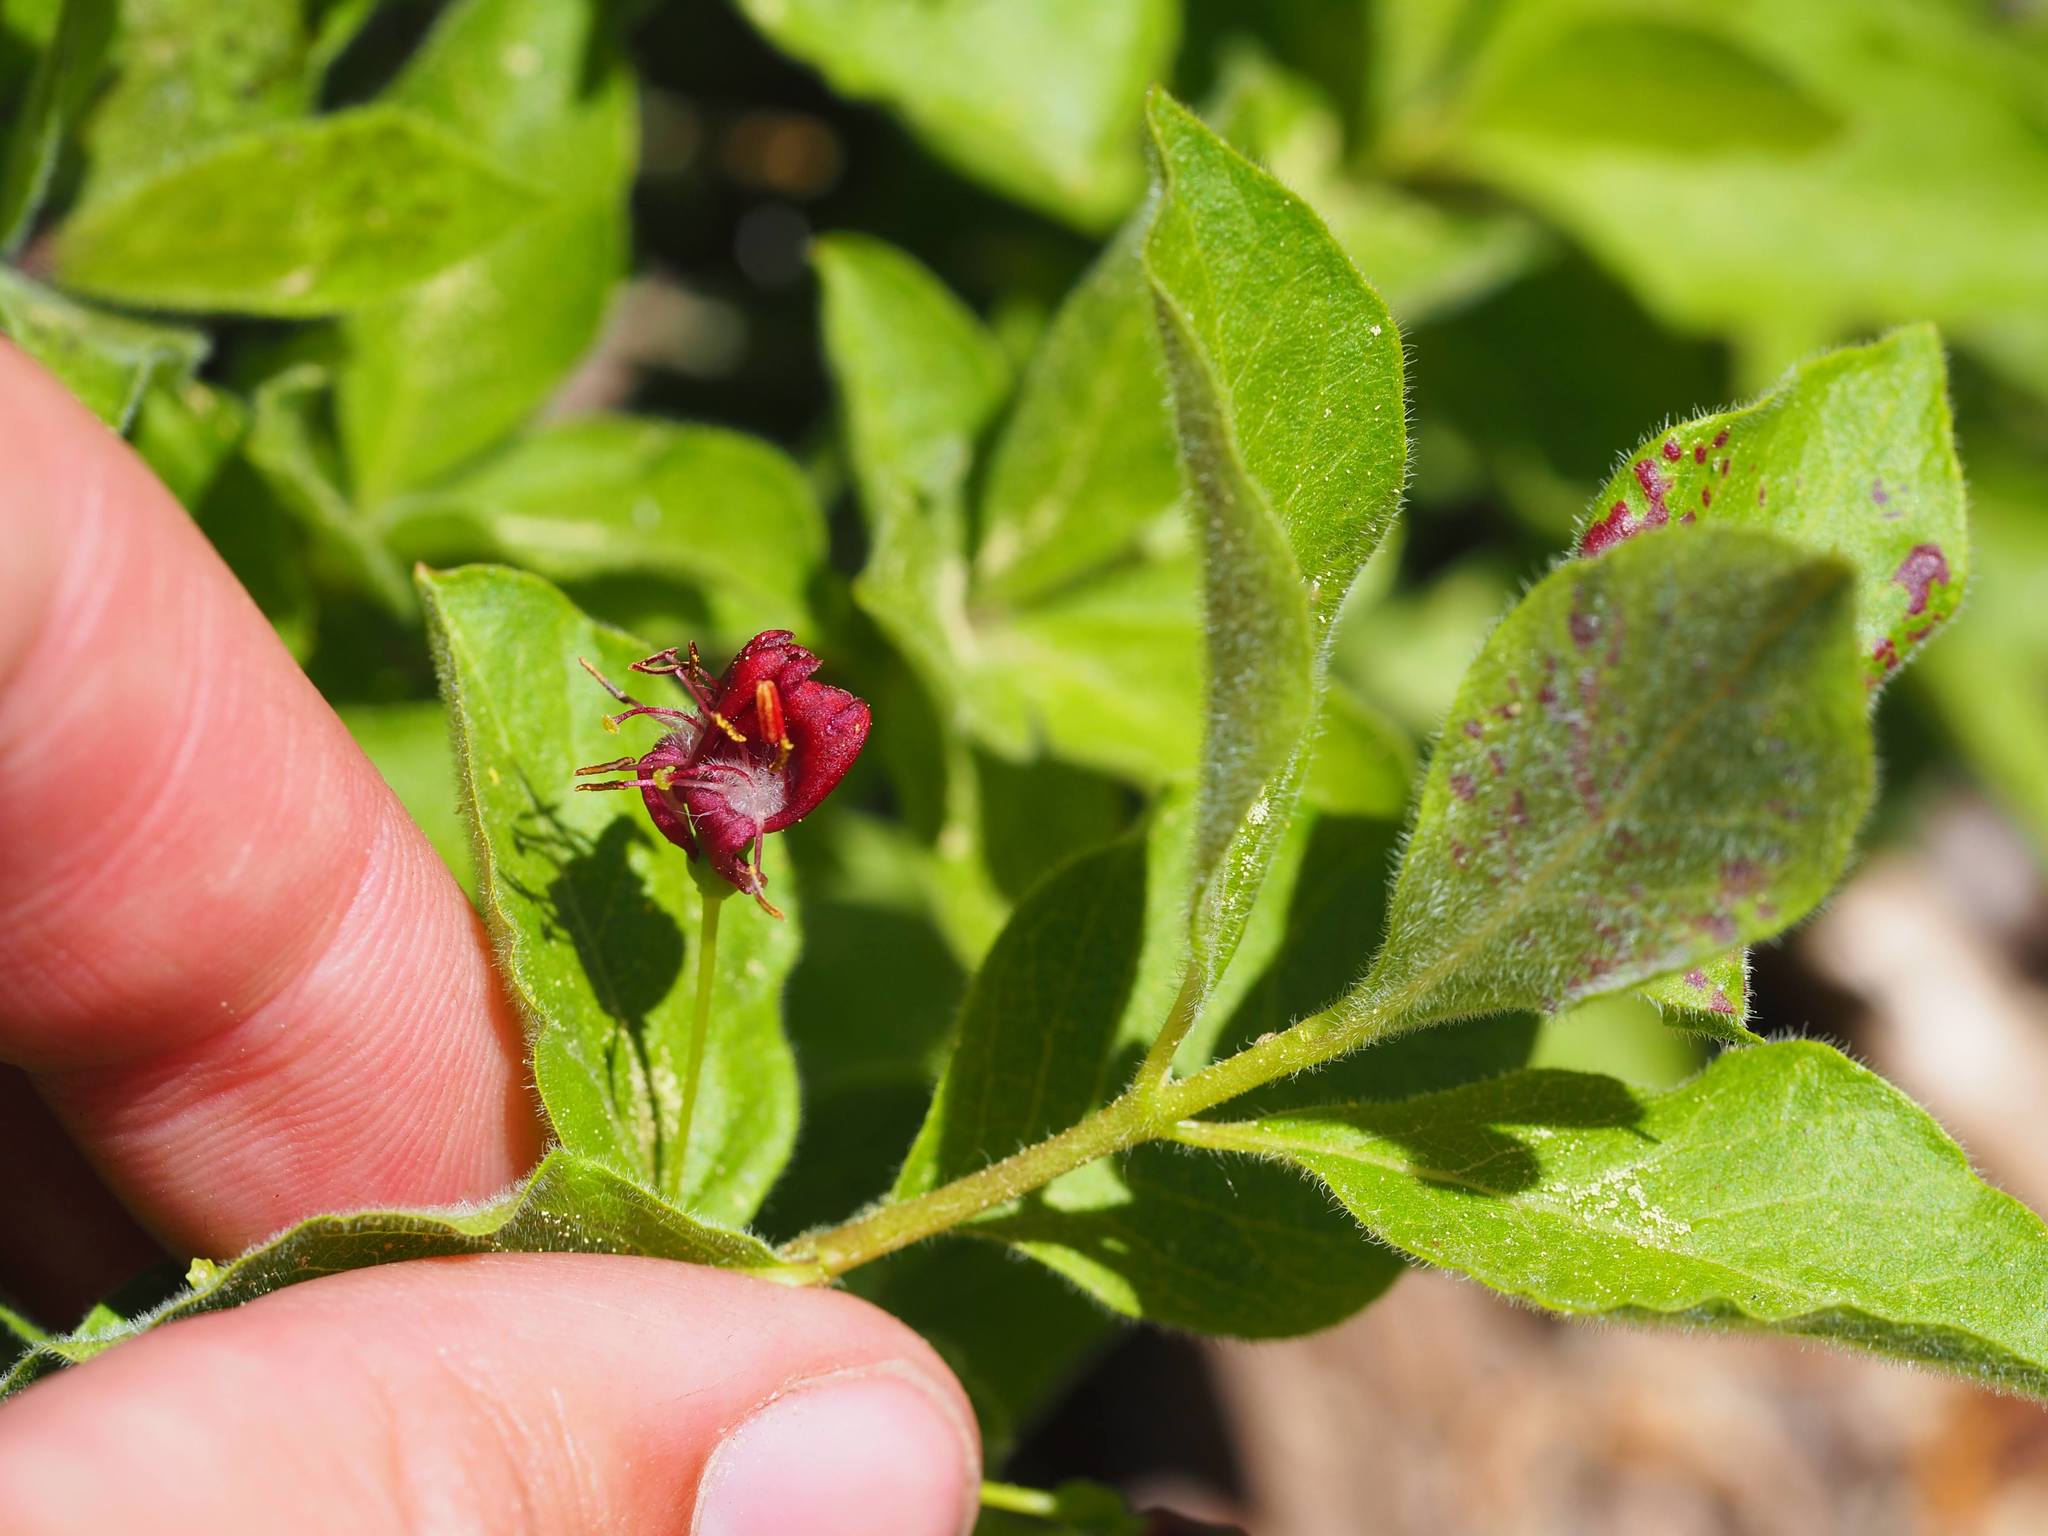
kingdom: Plantae
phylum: Tracheophyta
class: Magnoliopsida
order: Dipsacales
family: Caprifoliaceae
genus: Lonicera
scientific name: Lonicera conjugialis
